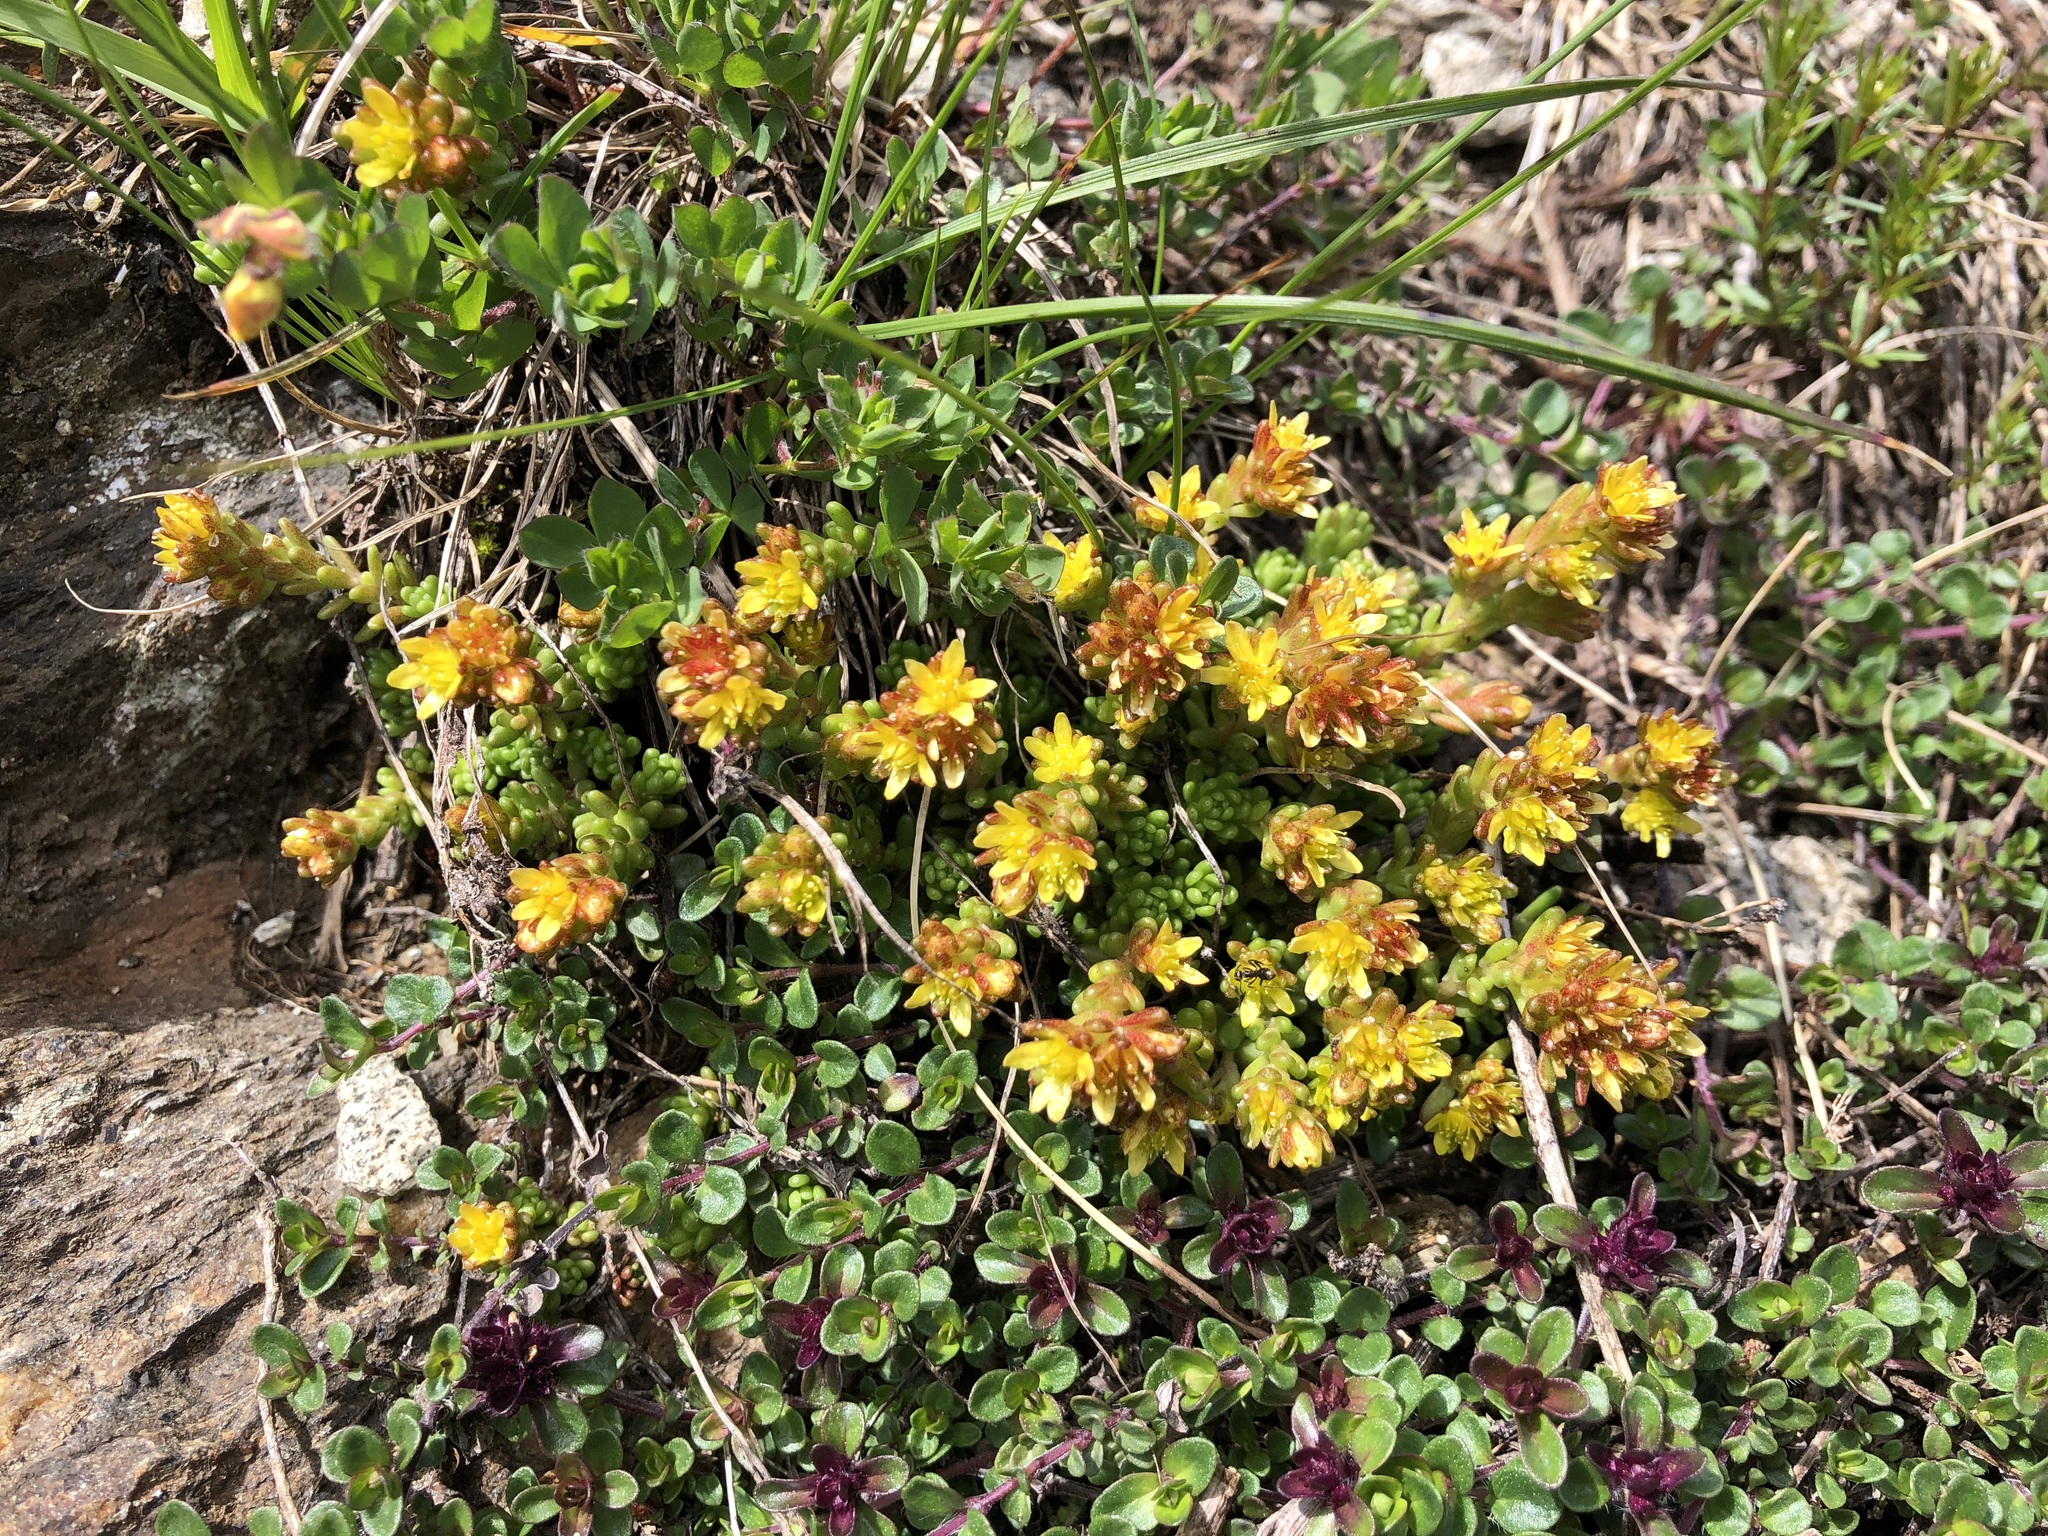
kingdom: Plantae
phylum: Tracheophyta
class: Magnoliopsida
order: Saxifragales
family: Crassulaceae
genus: Sedum
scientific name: Sedum alpestre
